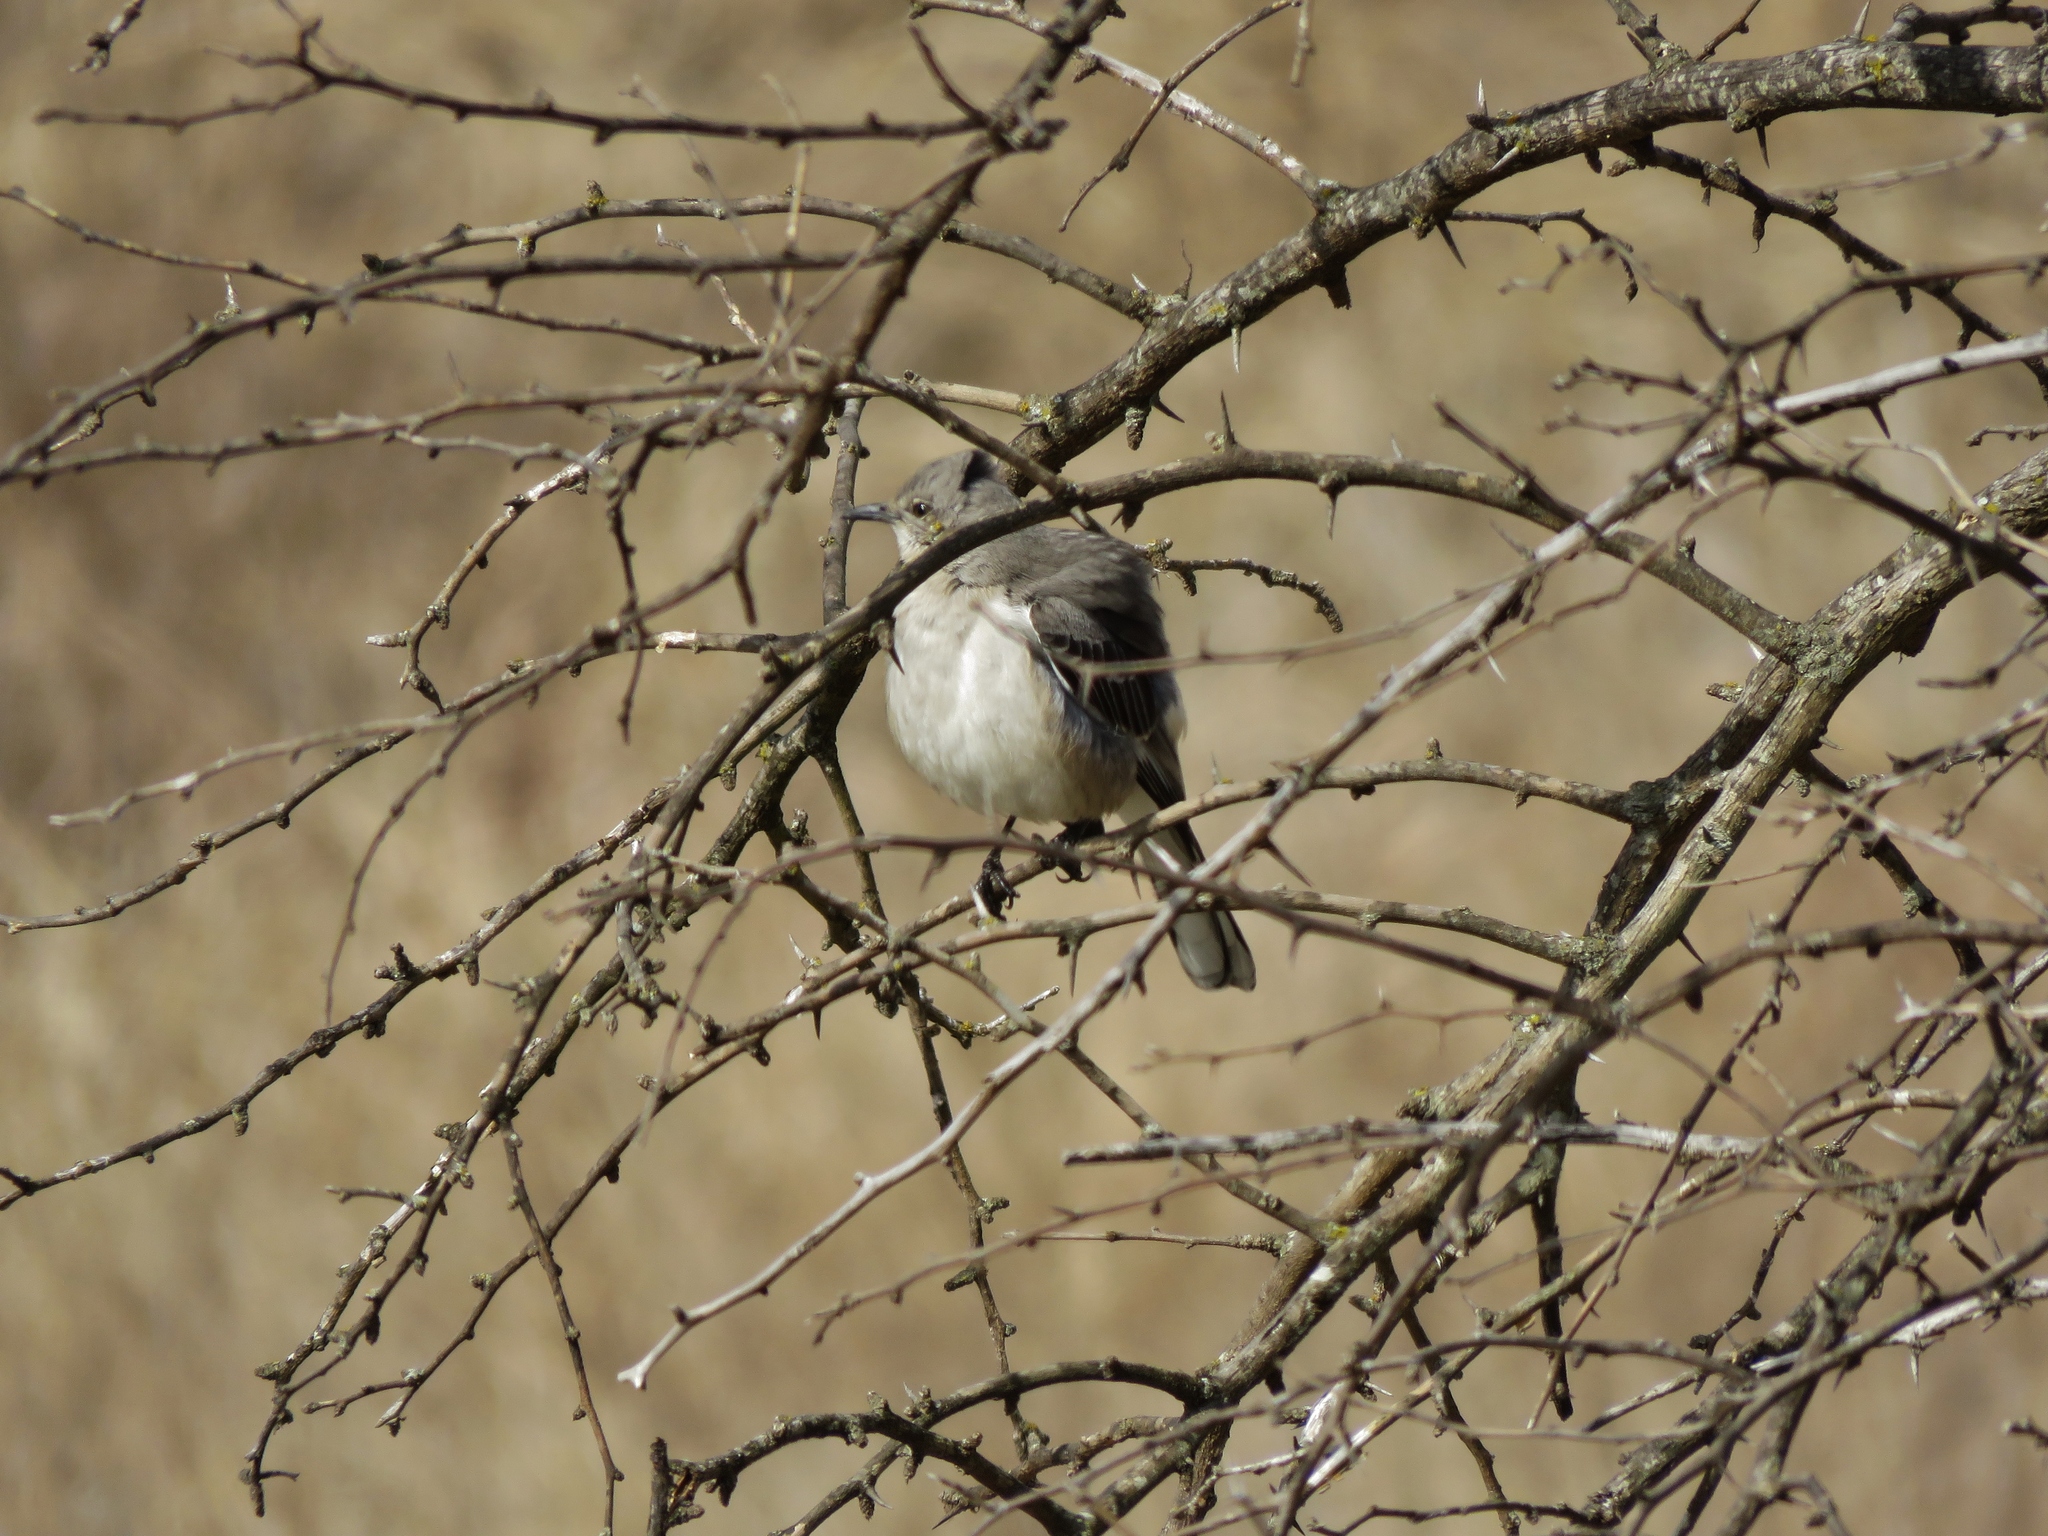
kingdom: Animalia
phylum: Chordata
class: Aves
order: Passeriformes
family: Mimidae
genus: Mimus
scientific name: Mimus polyglottos
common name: Northern mockingbird
